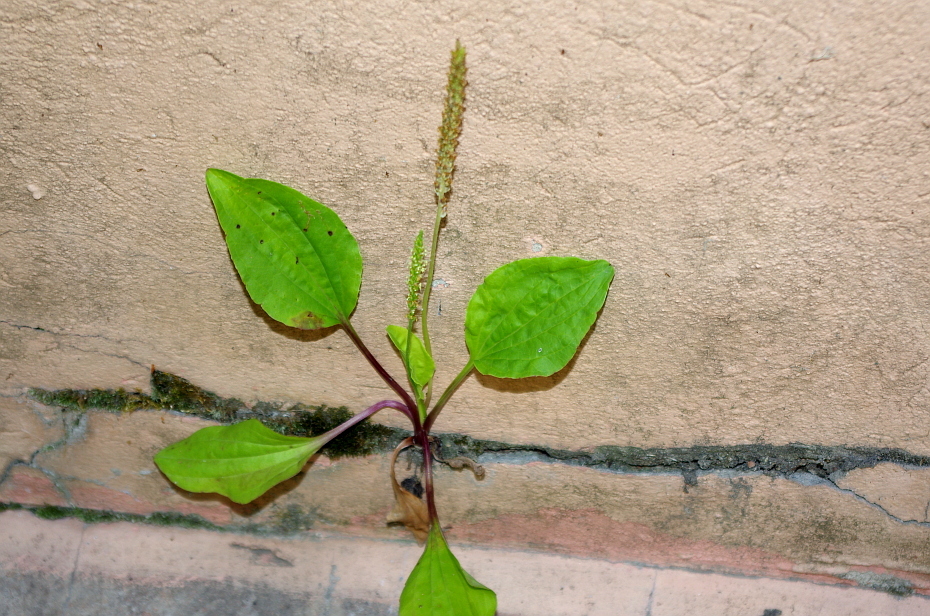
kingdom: Plantae
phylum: Tracheophyta
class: Magnoliopsida
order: Lamiales
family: Plantaginaceae
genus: Plantago
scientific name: Plantago major
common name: Common plantain
